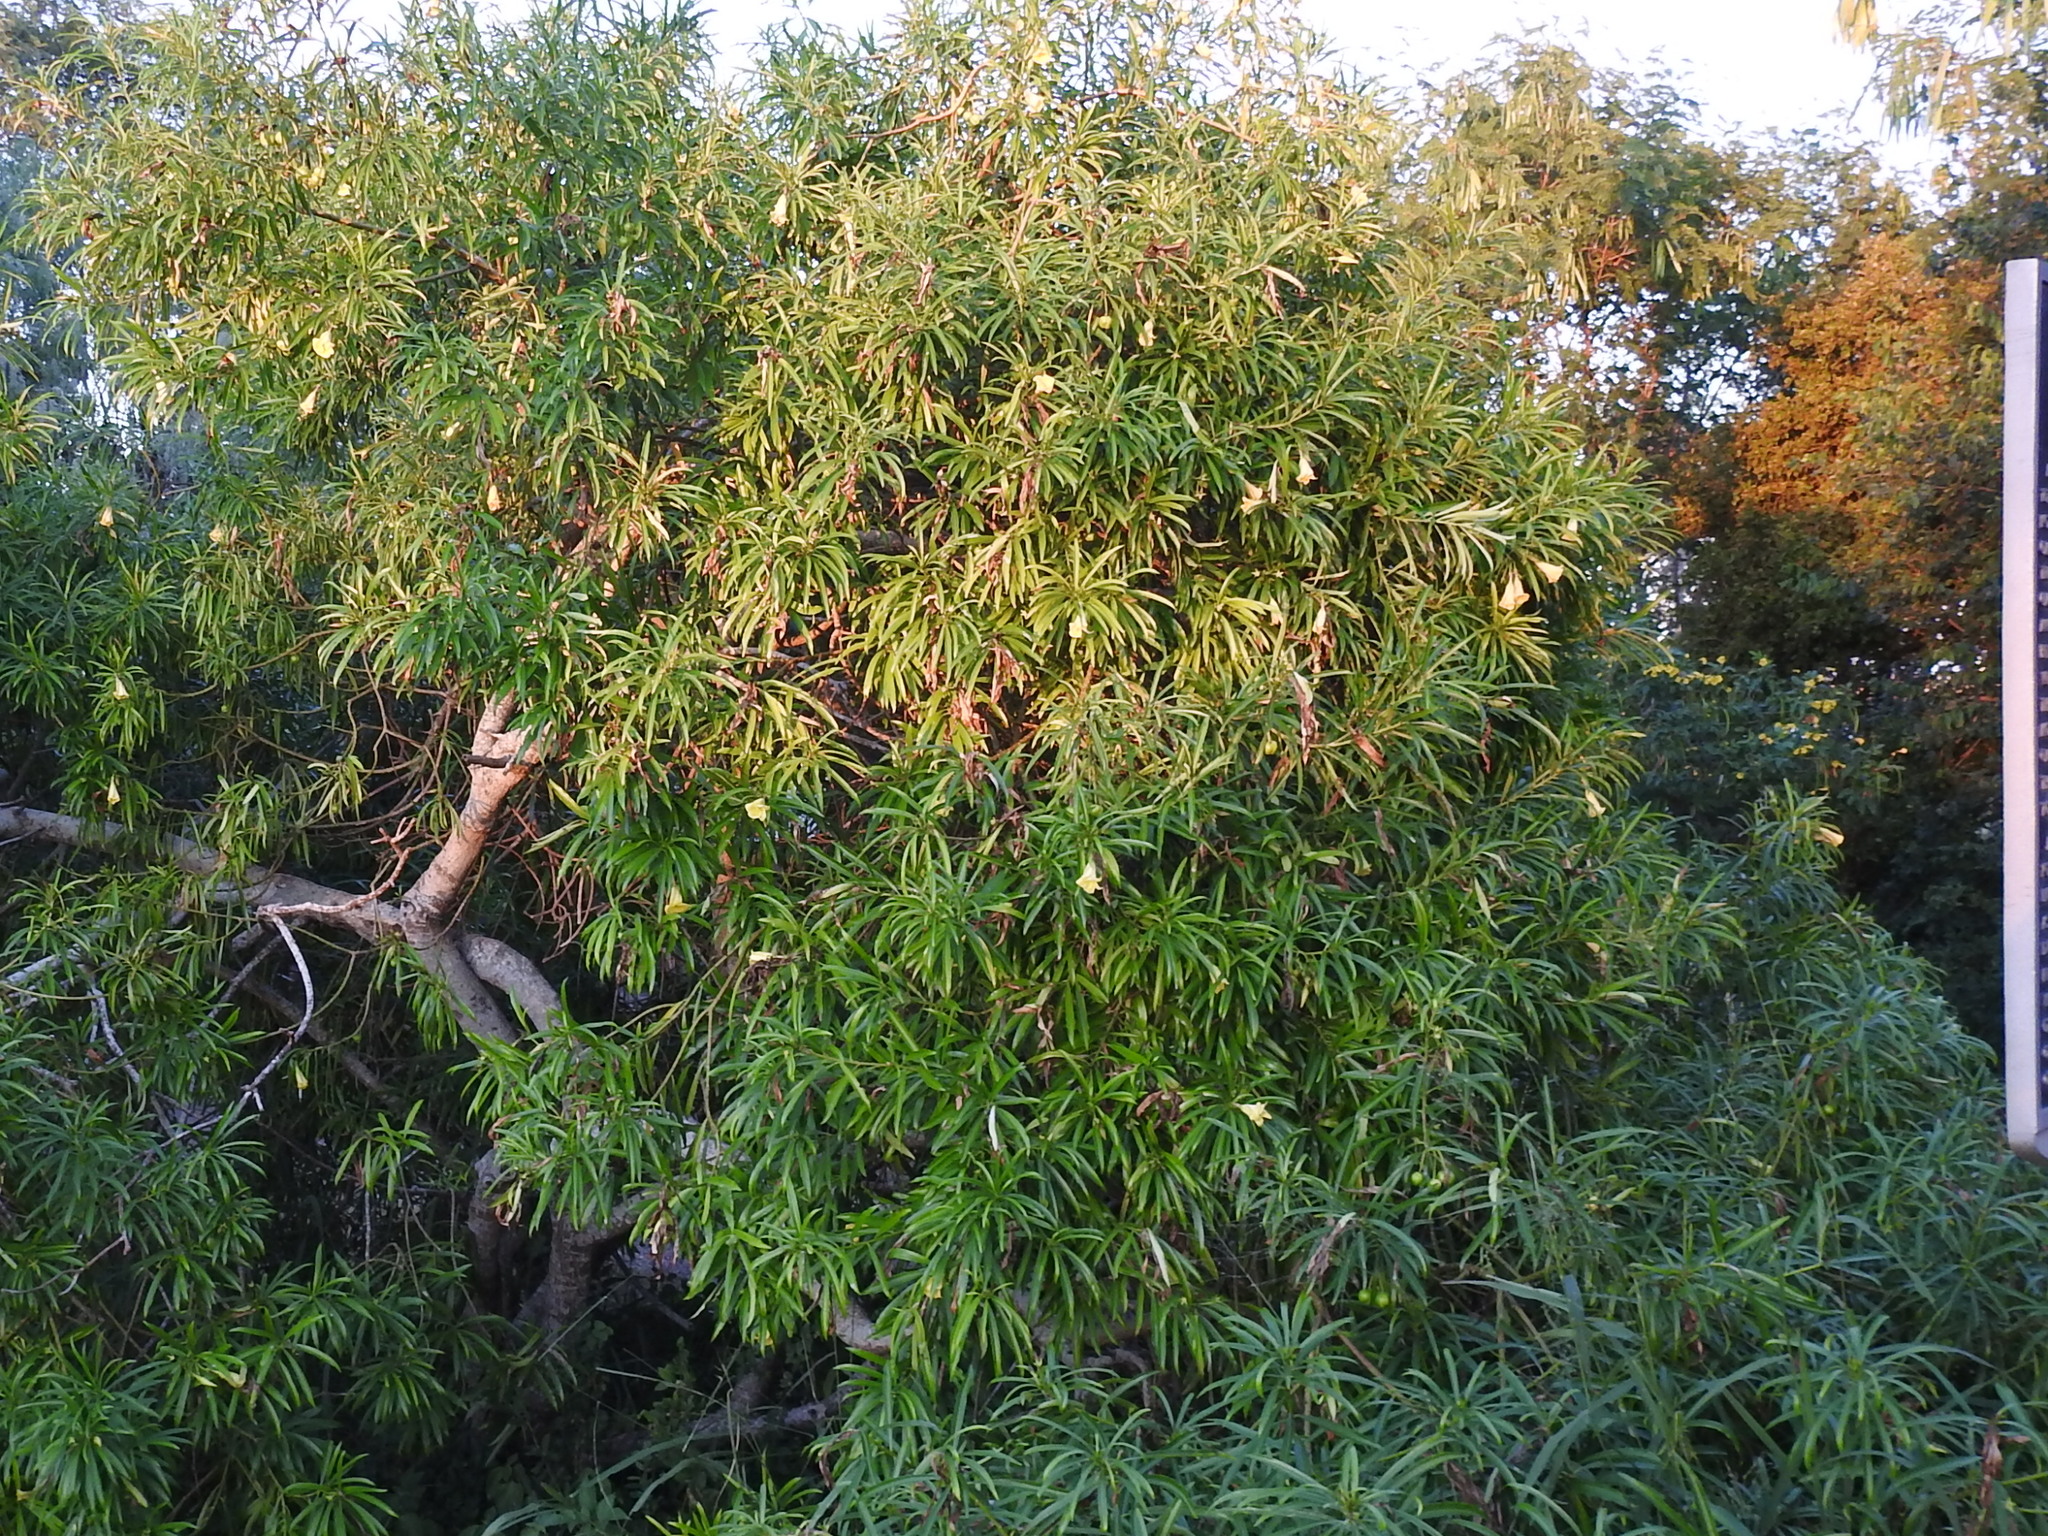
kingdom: Plantae
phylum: Tracheophyta
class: Magnoliopsida
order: Gentianales
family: Apocynaceae
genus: Cascabela
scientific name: Cascabela thevetia
